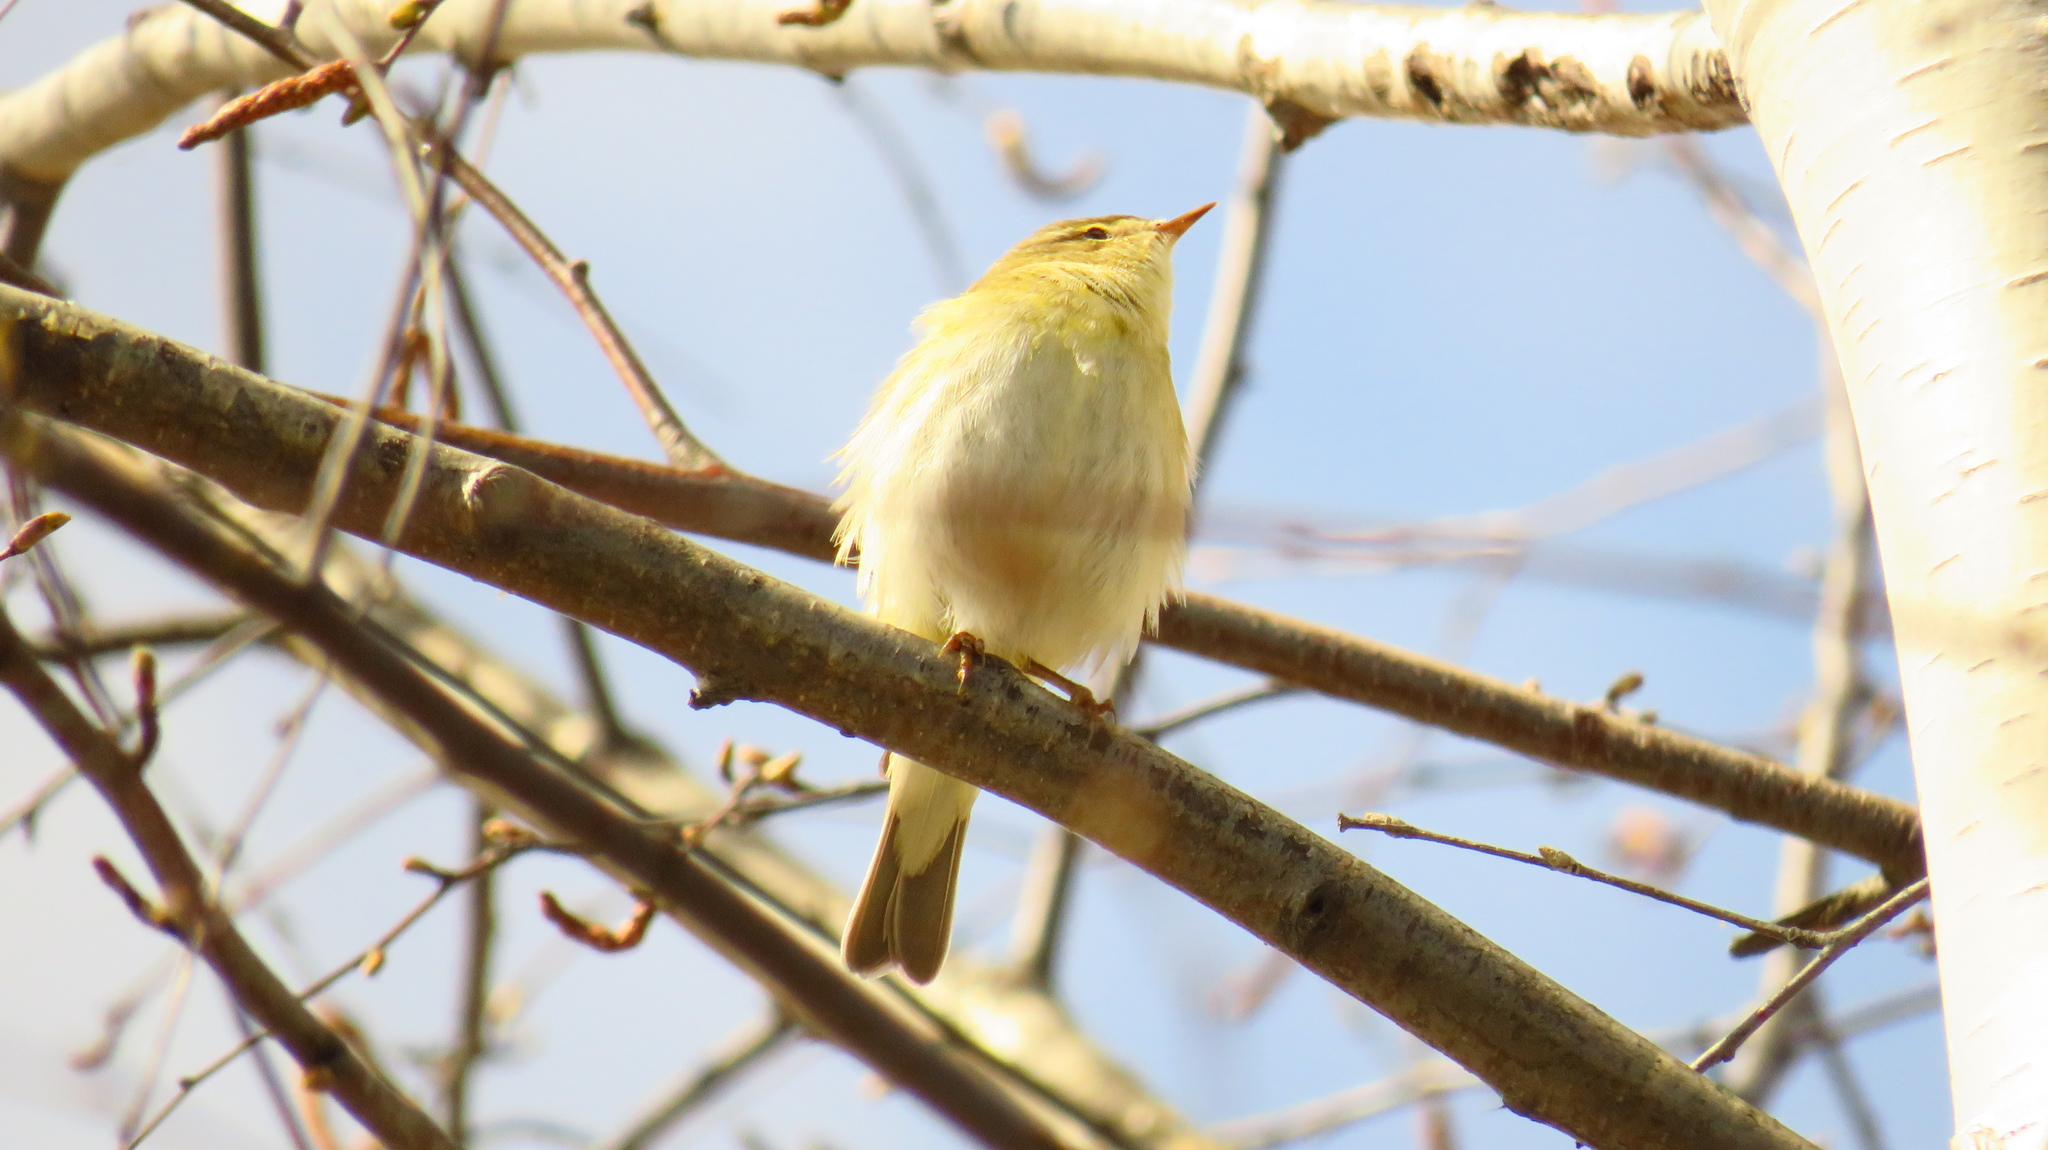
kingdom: Animalia
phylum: Chordata
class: Aves
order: Passeriformes
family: Phylloscopidae
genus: Phylloscopus
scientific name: Phylloscopus trochilus
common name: Willow warbler
